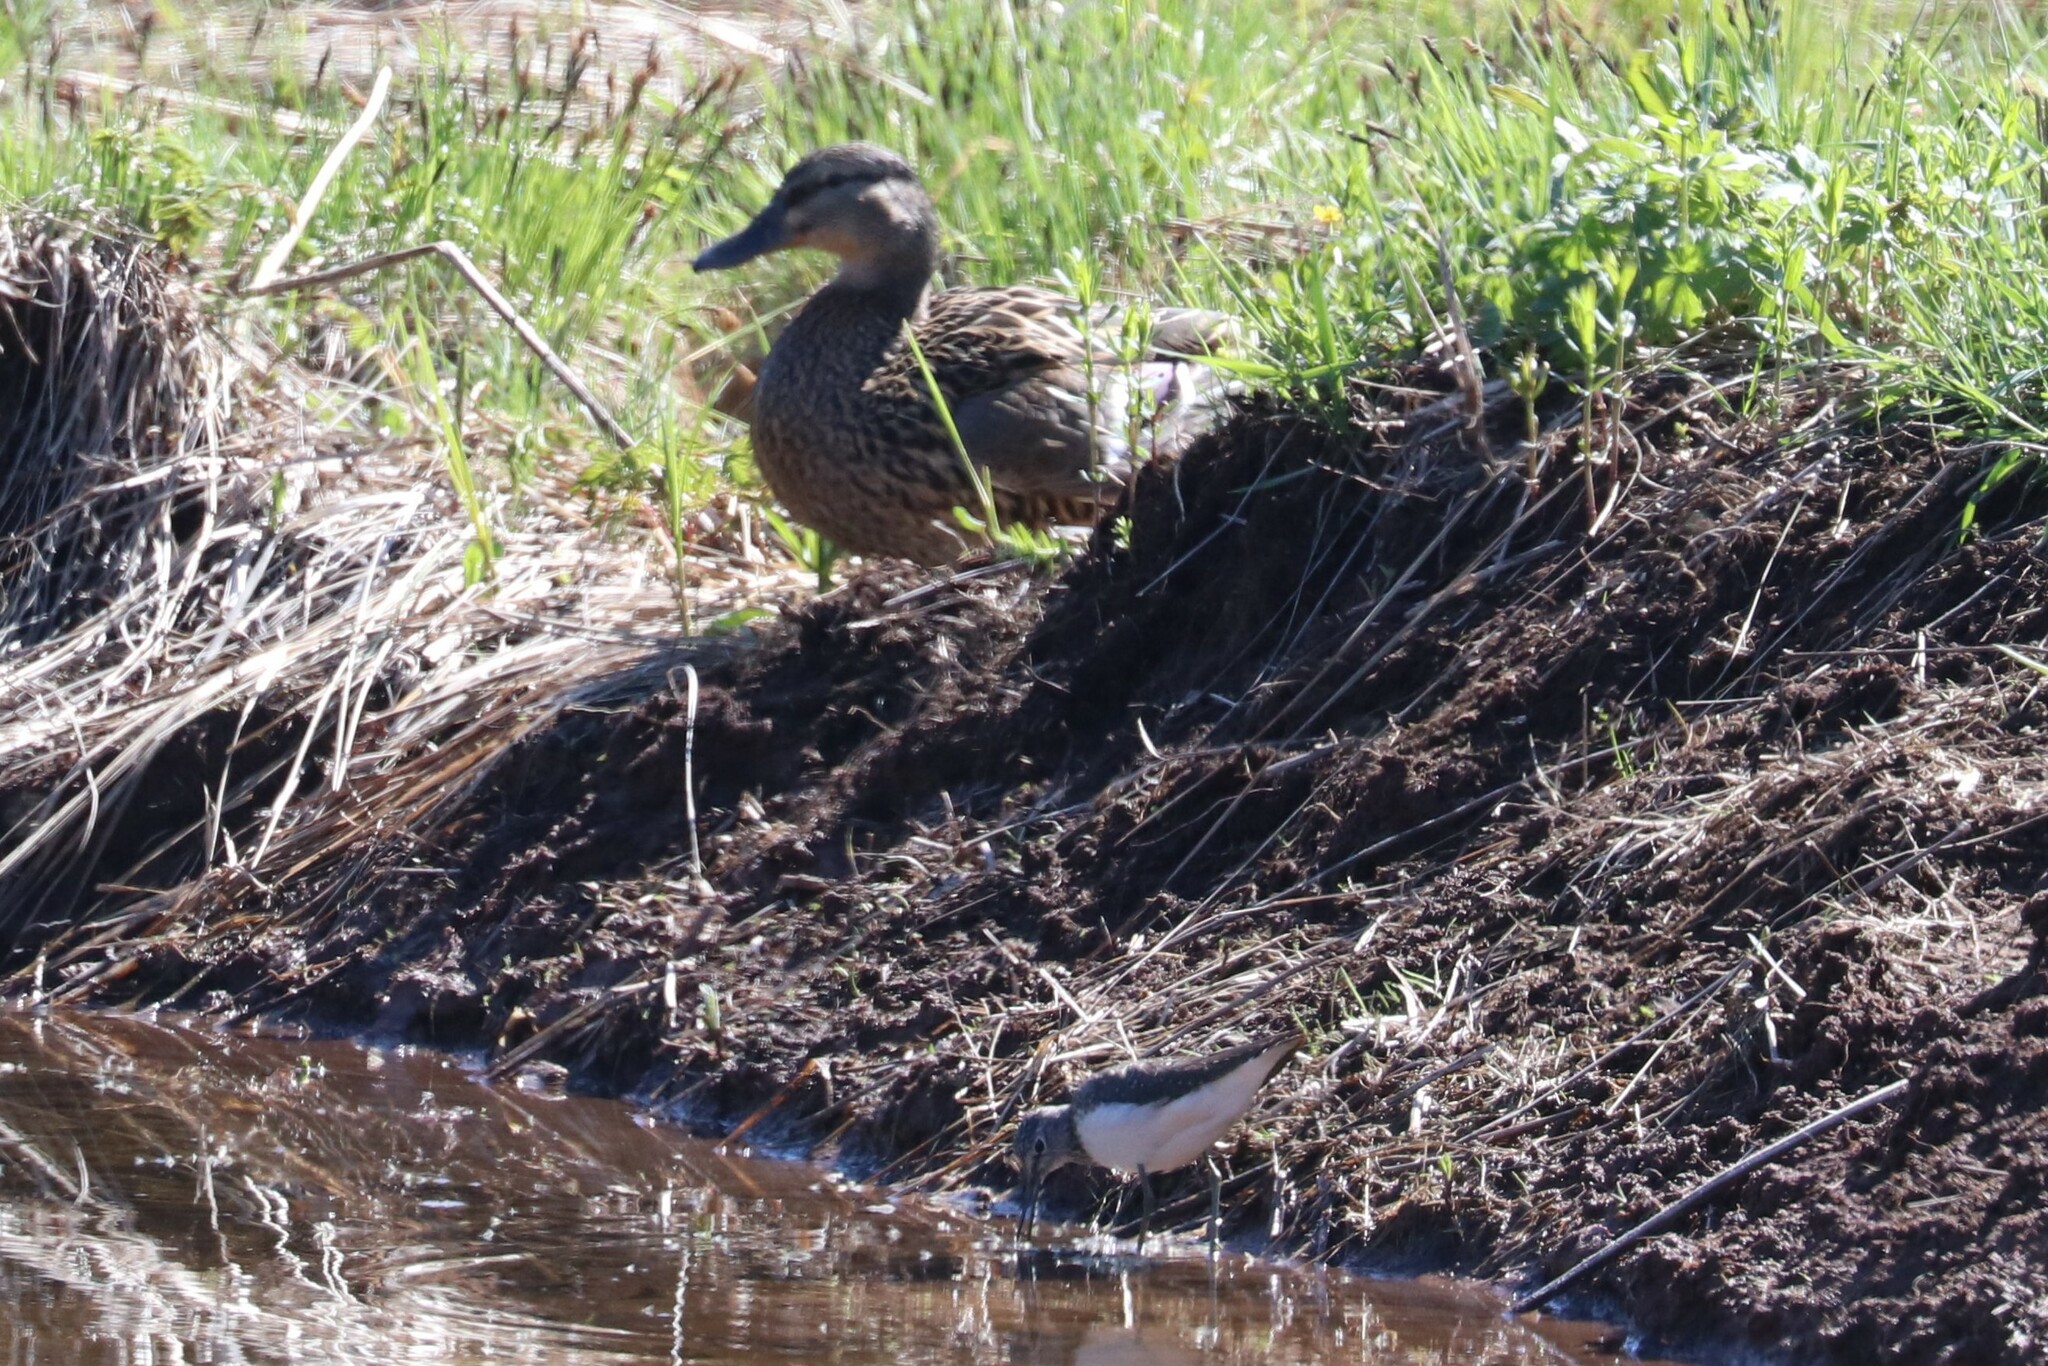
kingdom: Animalia
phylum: Chordata
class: Aves
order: Charadriiformes
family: Scolopacidae
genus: Tringa
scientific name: Tringa ochropus
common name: Green sandpiper
